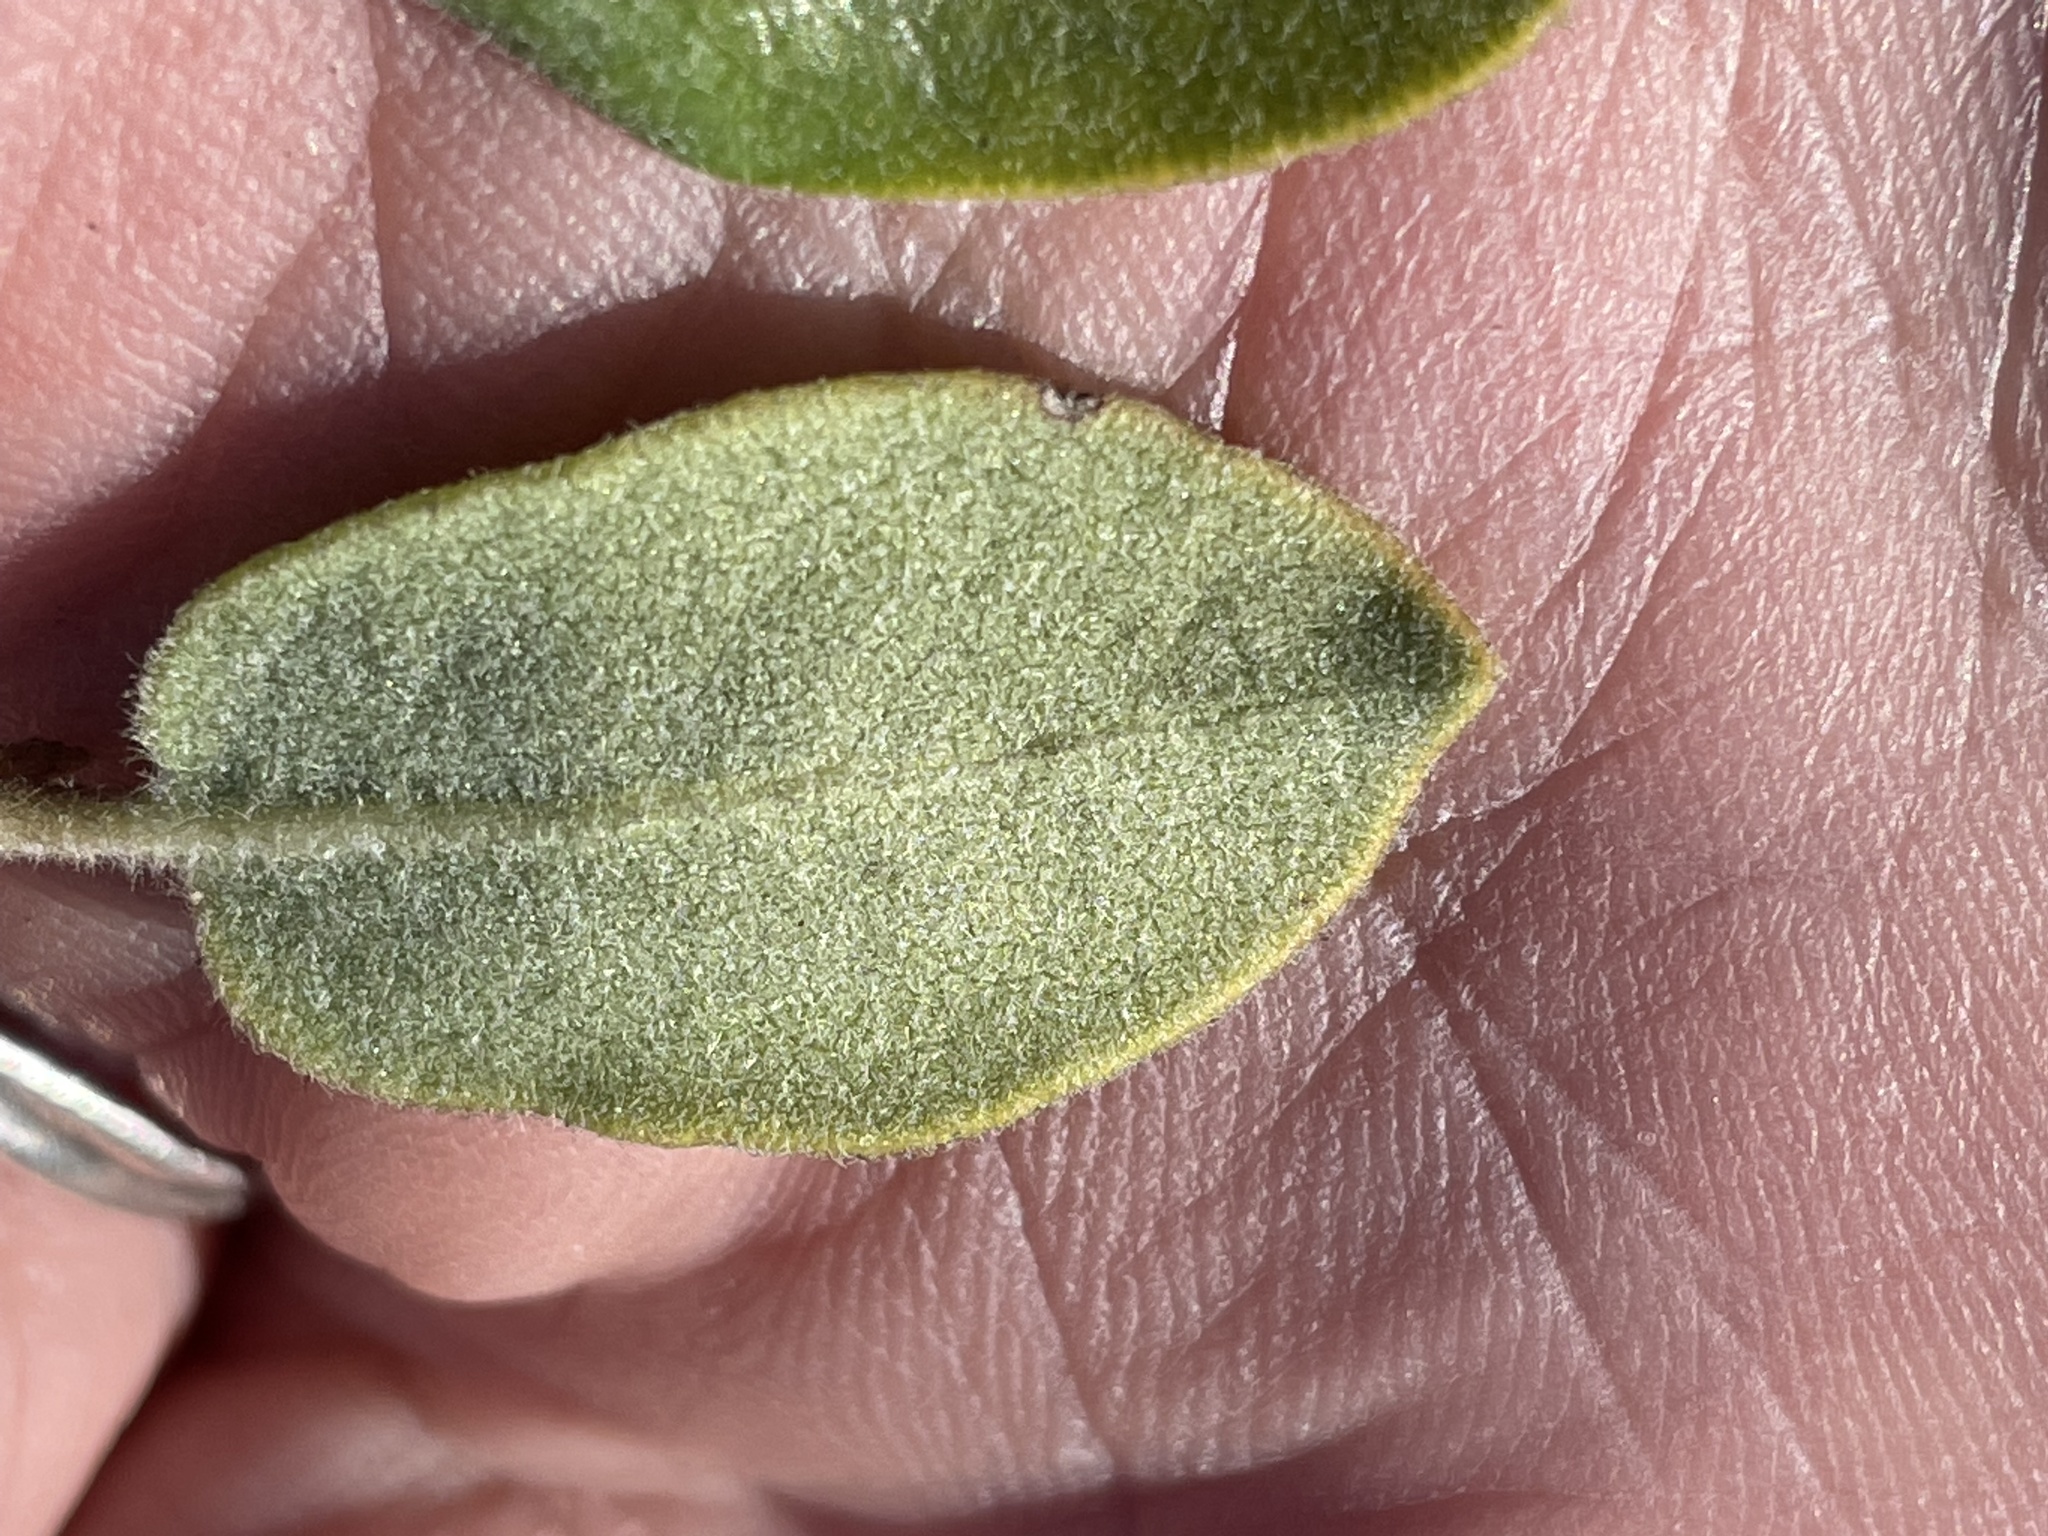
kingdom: Plantae
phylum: Tracheophyta
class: Magnoliopsida
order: Ericales
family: Ericaceae
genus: Arctostaphylos
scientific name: Arctostaphylos tomentosa
